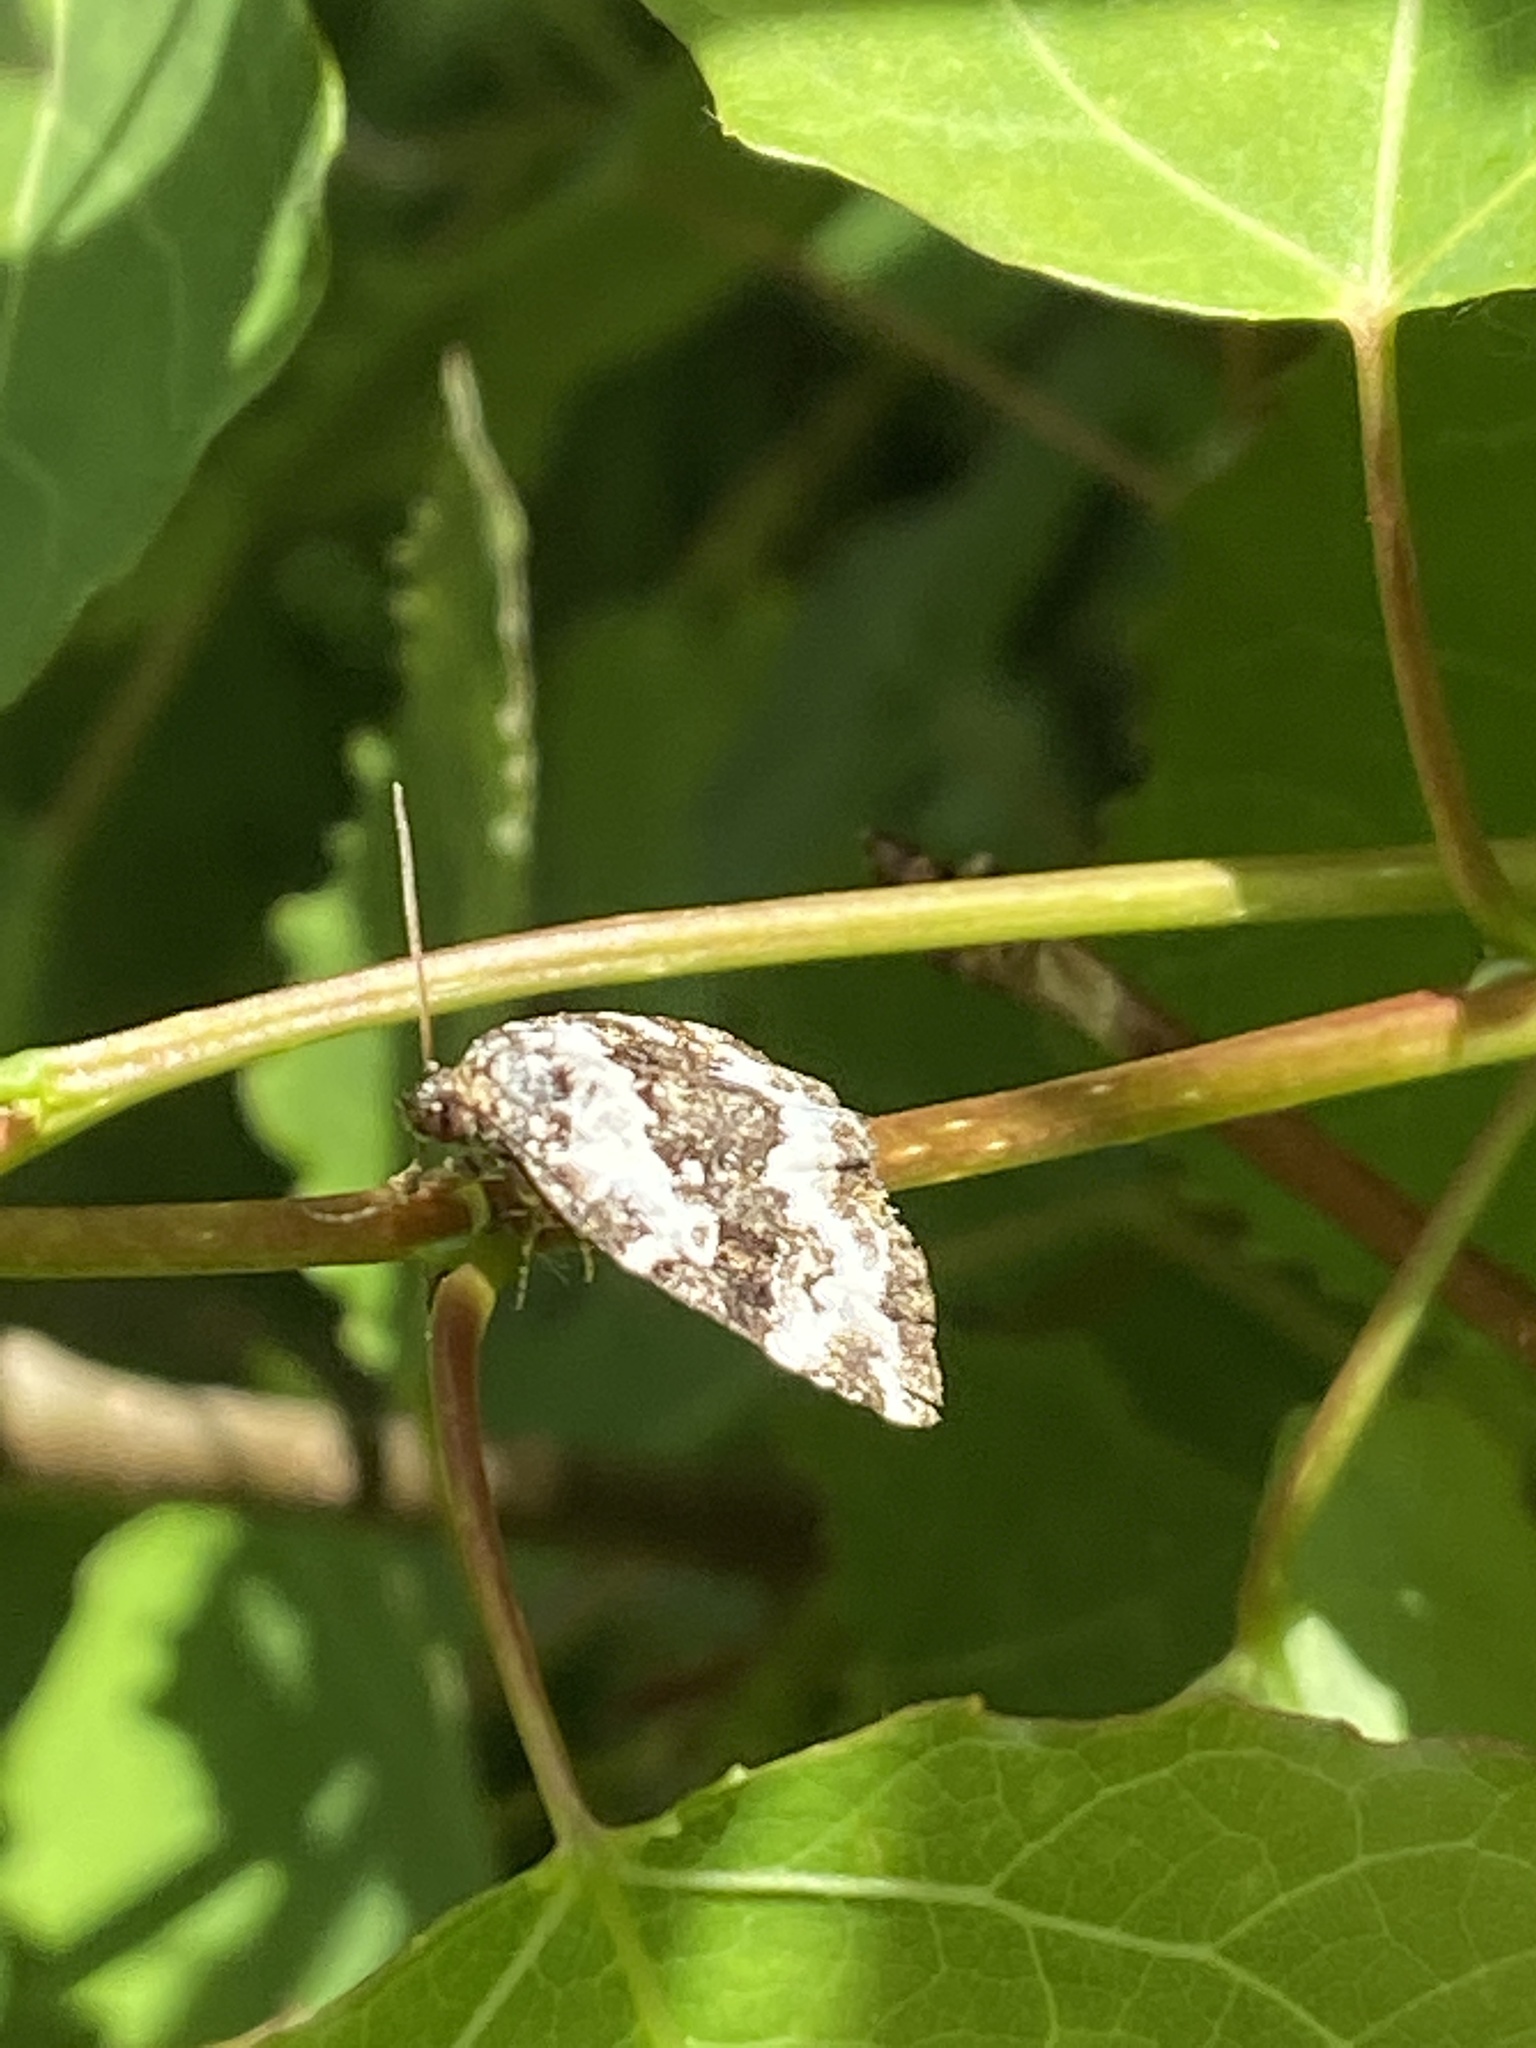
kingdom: Animalia
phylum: Arthropoda
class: Insecta
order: Lepidoptera
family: Noctuidae
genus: Deltote
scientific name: Deltote deceptoria
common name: Pretty marbled
